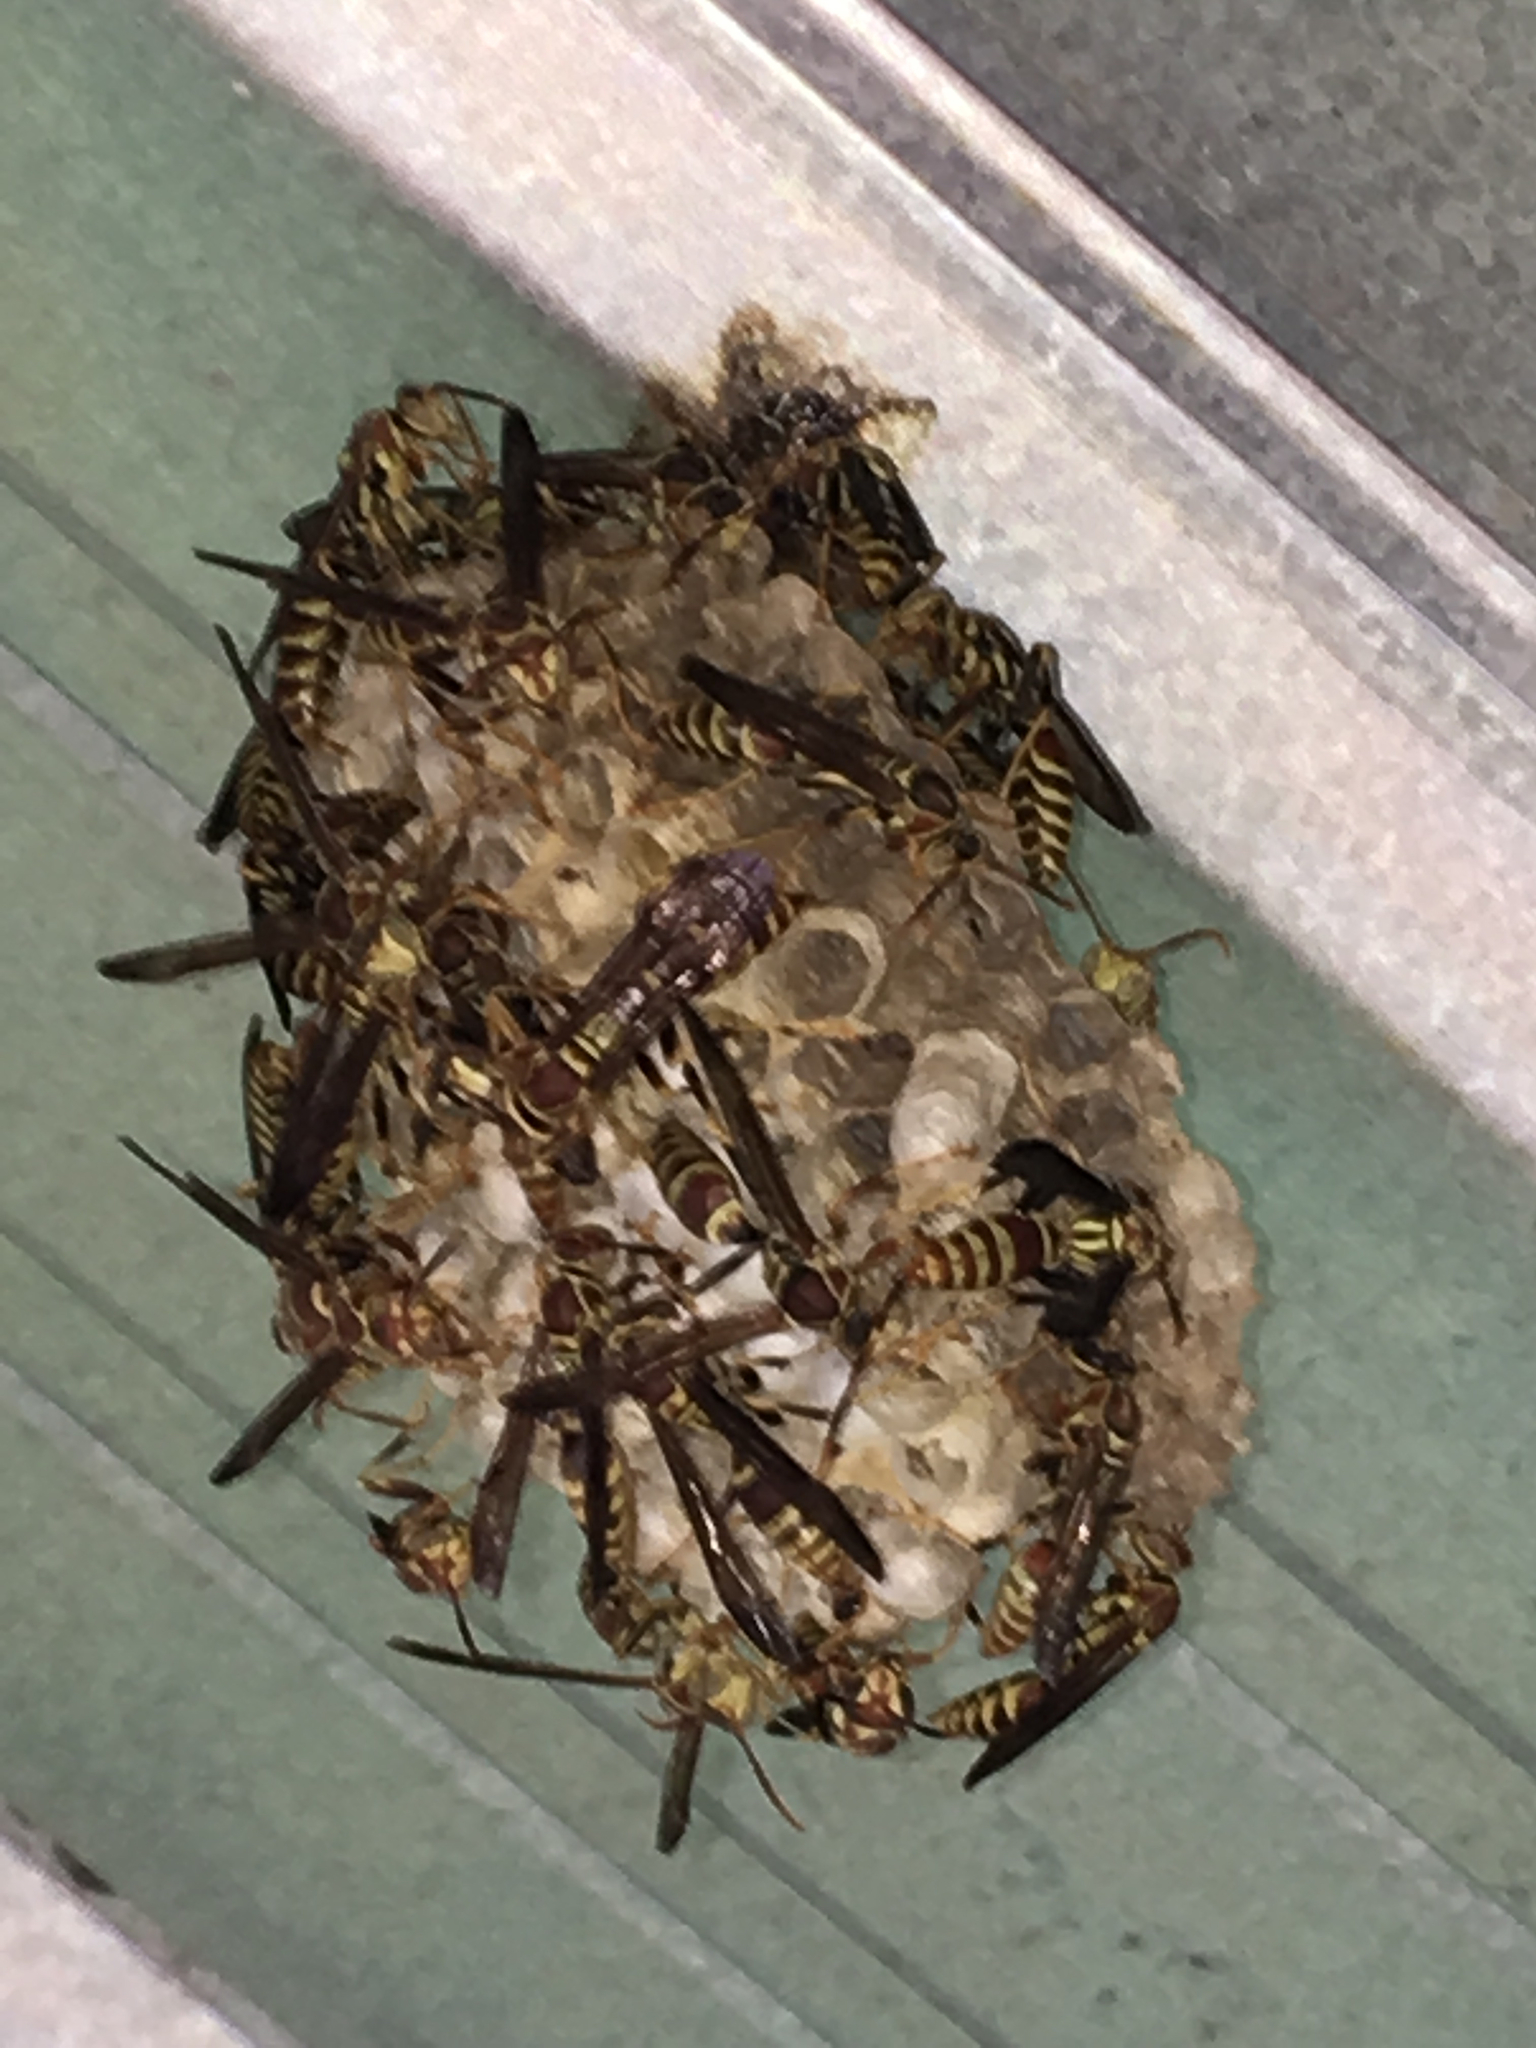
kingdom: Animalia
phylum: Arthropoda
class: Insecta
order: Hymenoptera
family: Eumenidae
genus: Polistes
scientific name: Polistes exclamans
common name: Paper wasp
